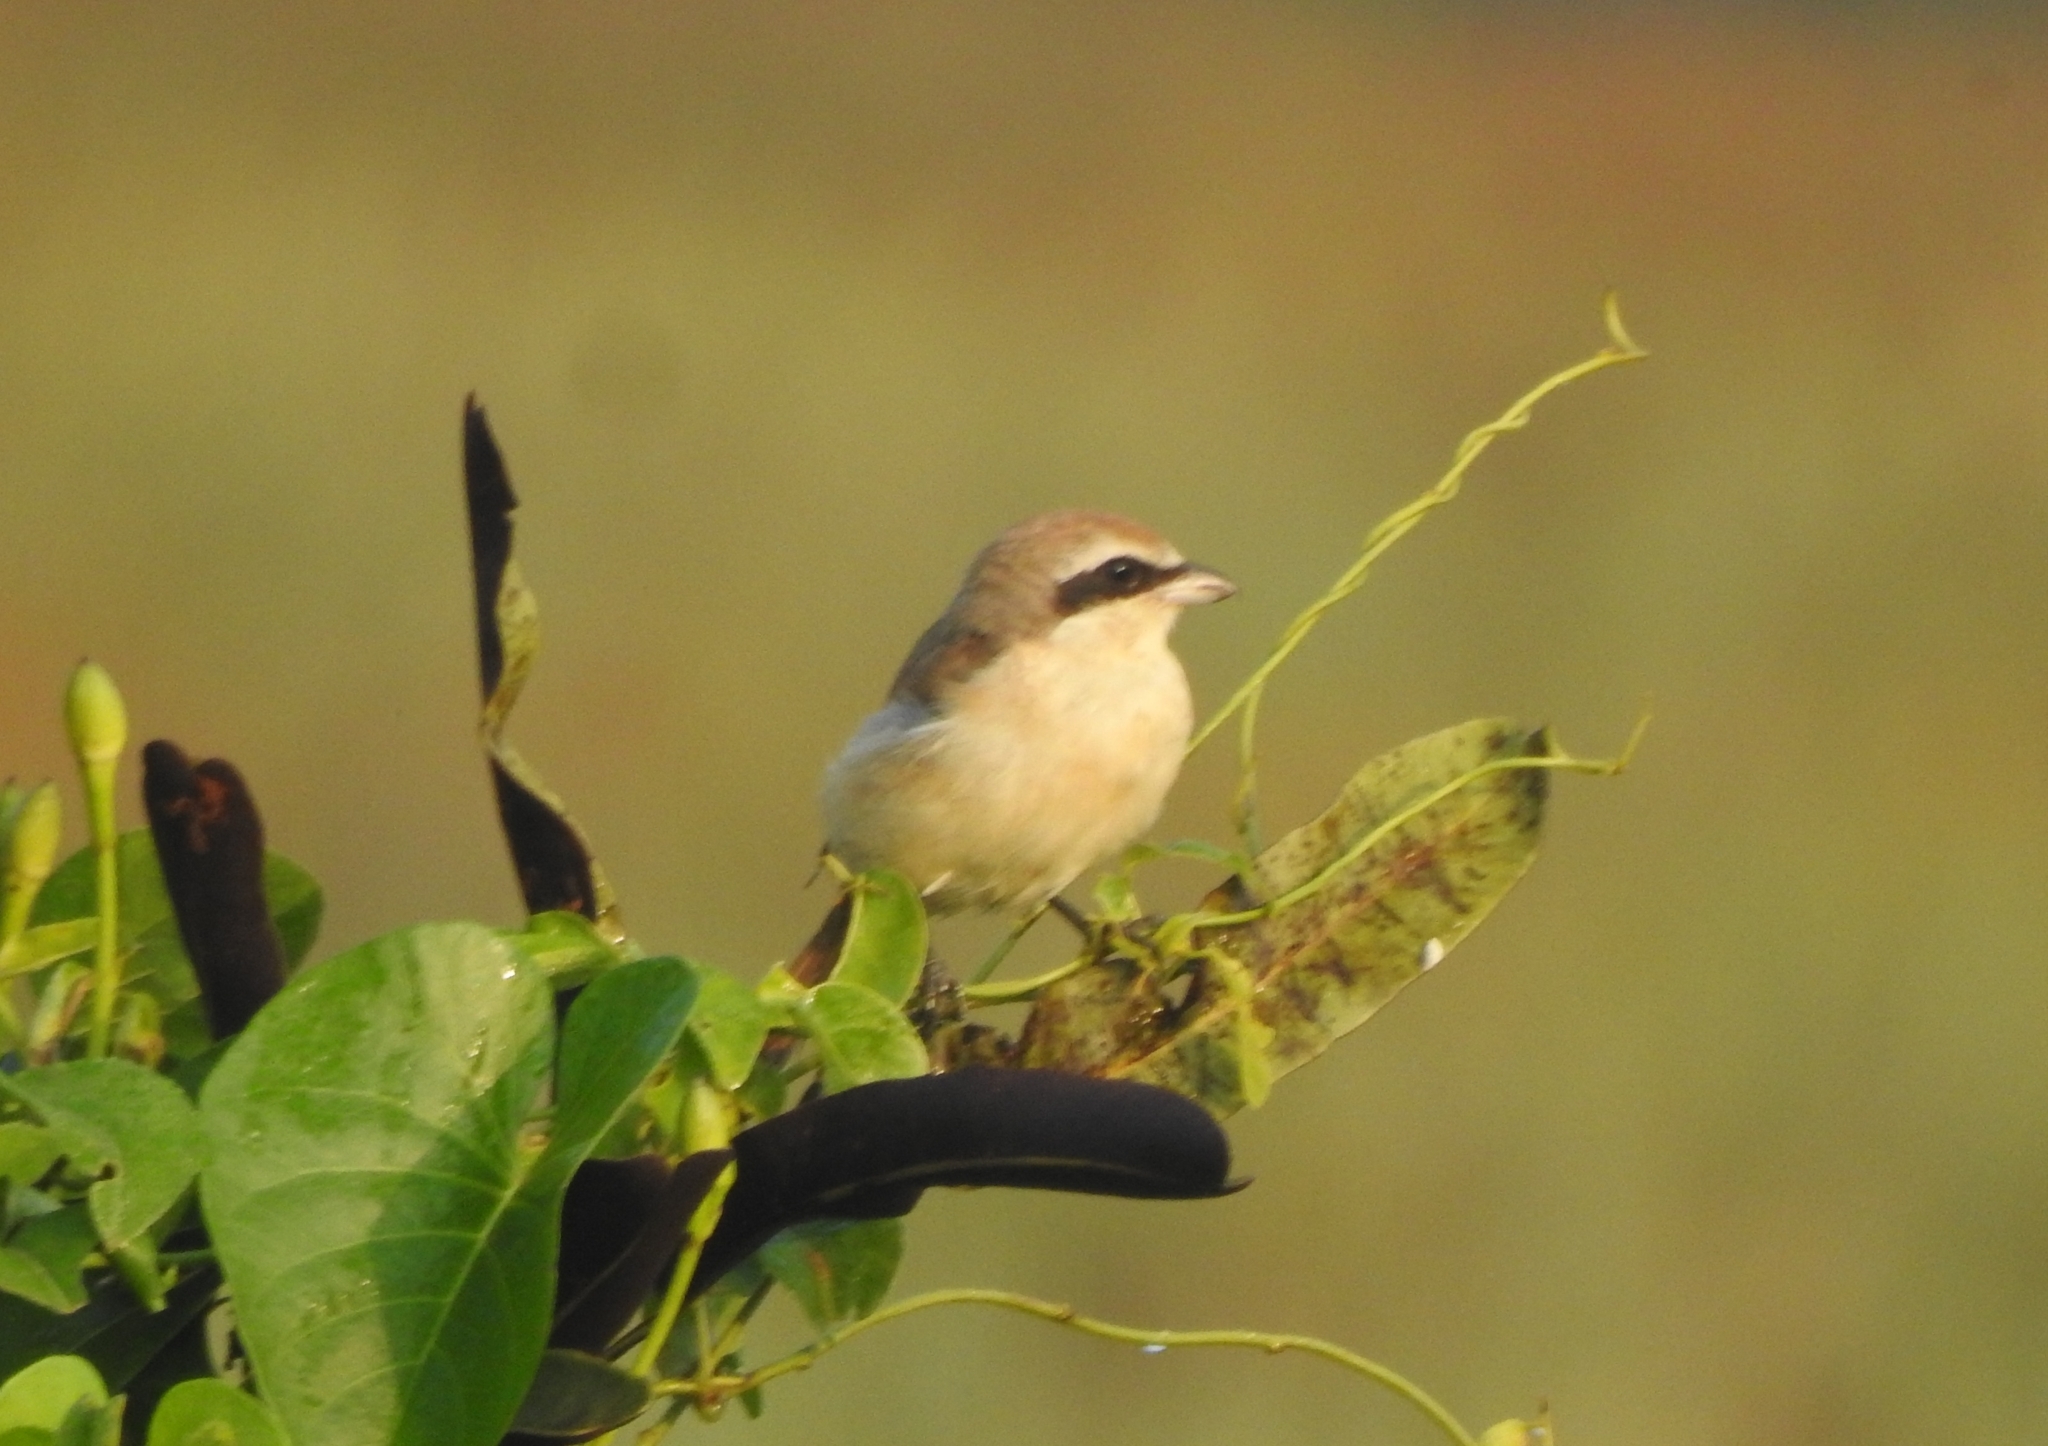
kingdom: Animalia
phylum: Chordata
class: Aves
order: Passeriformes
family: Laniidae
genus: Lanius
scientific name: Lanius cristatus
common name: Brown shrike
